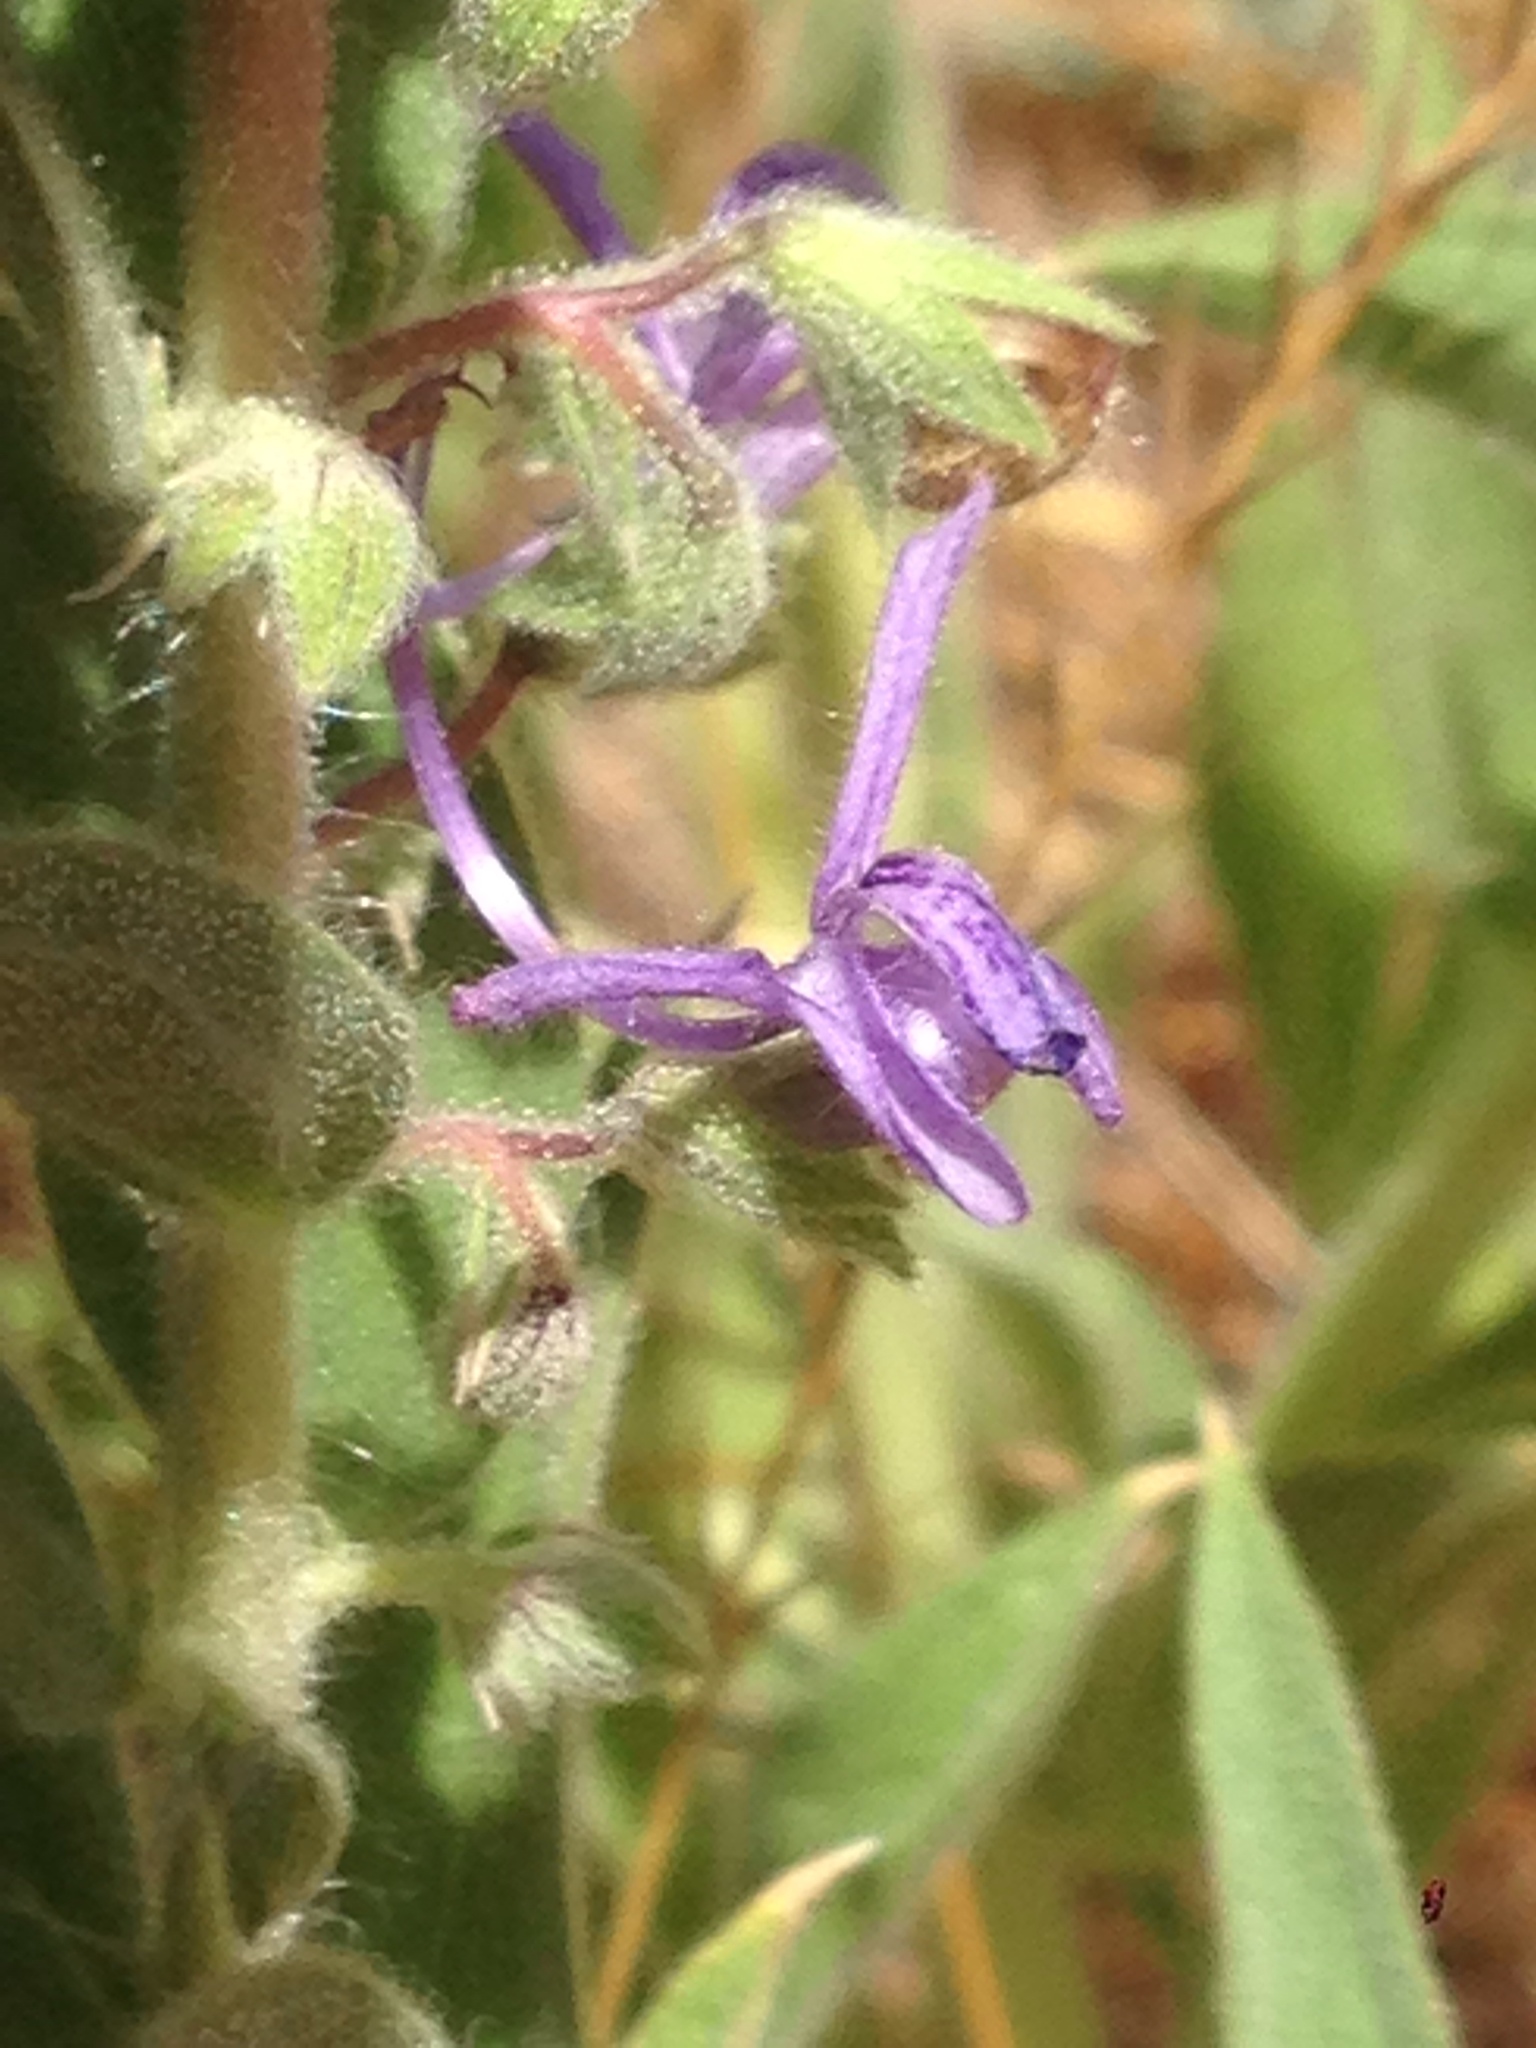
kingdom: Plantae
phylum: Tracheophyta
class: Magnoliopsida
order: Lamiales
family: Lamiaceae
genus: Trichostema
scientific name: Trichostema lanceolatum
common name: Vinegar-weed
